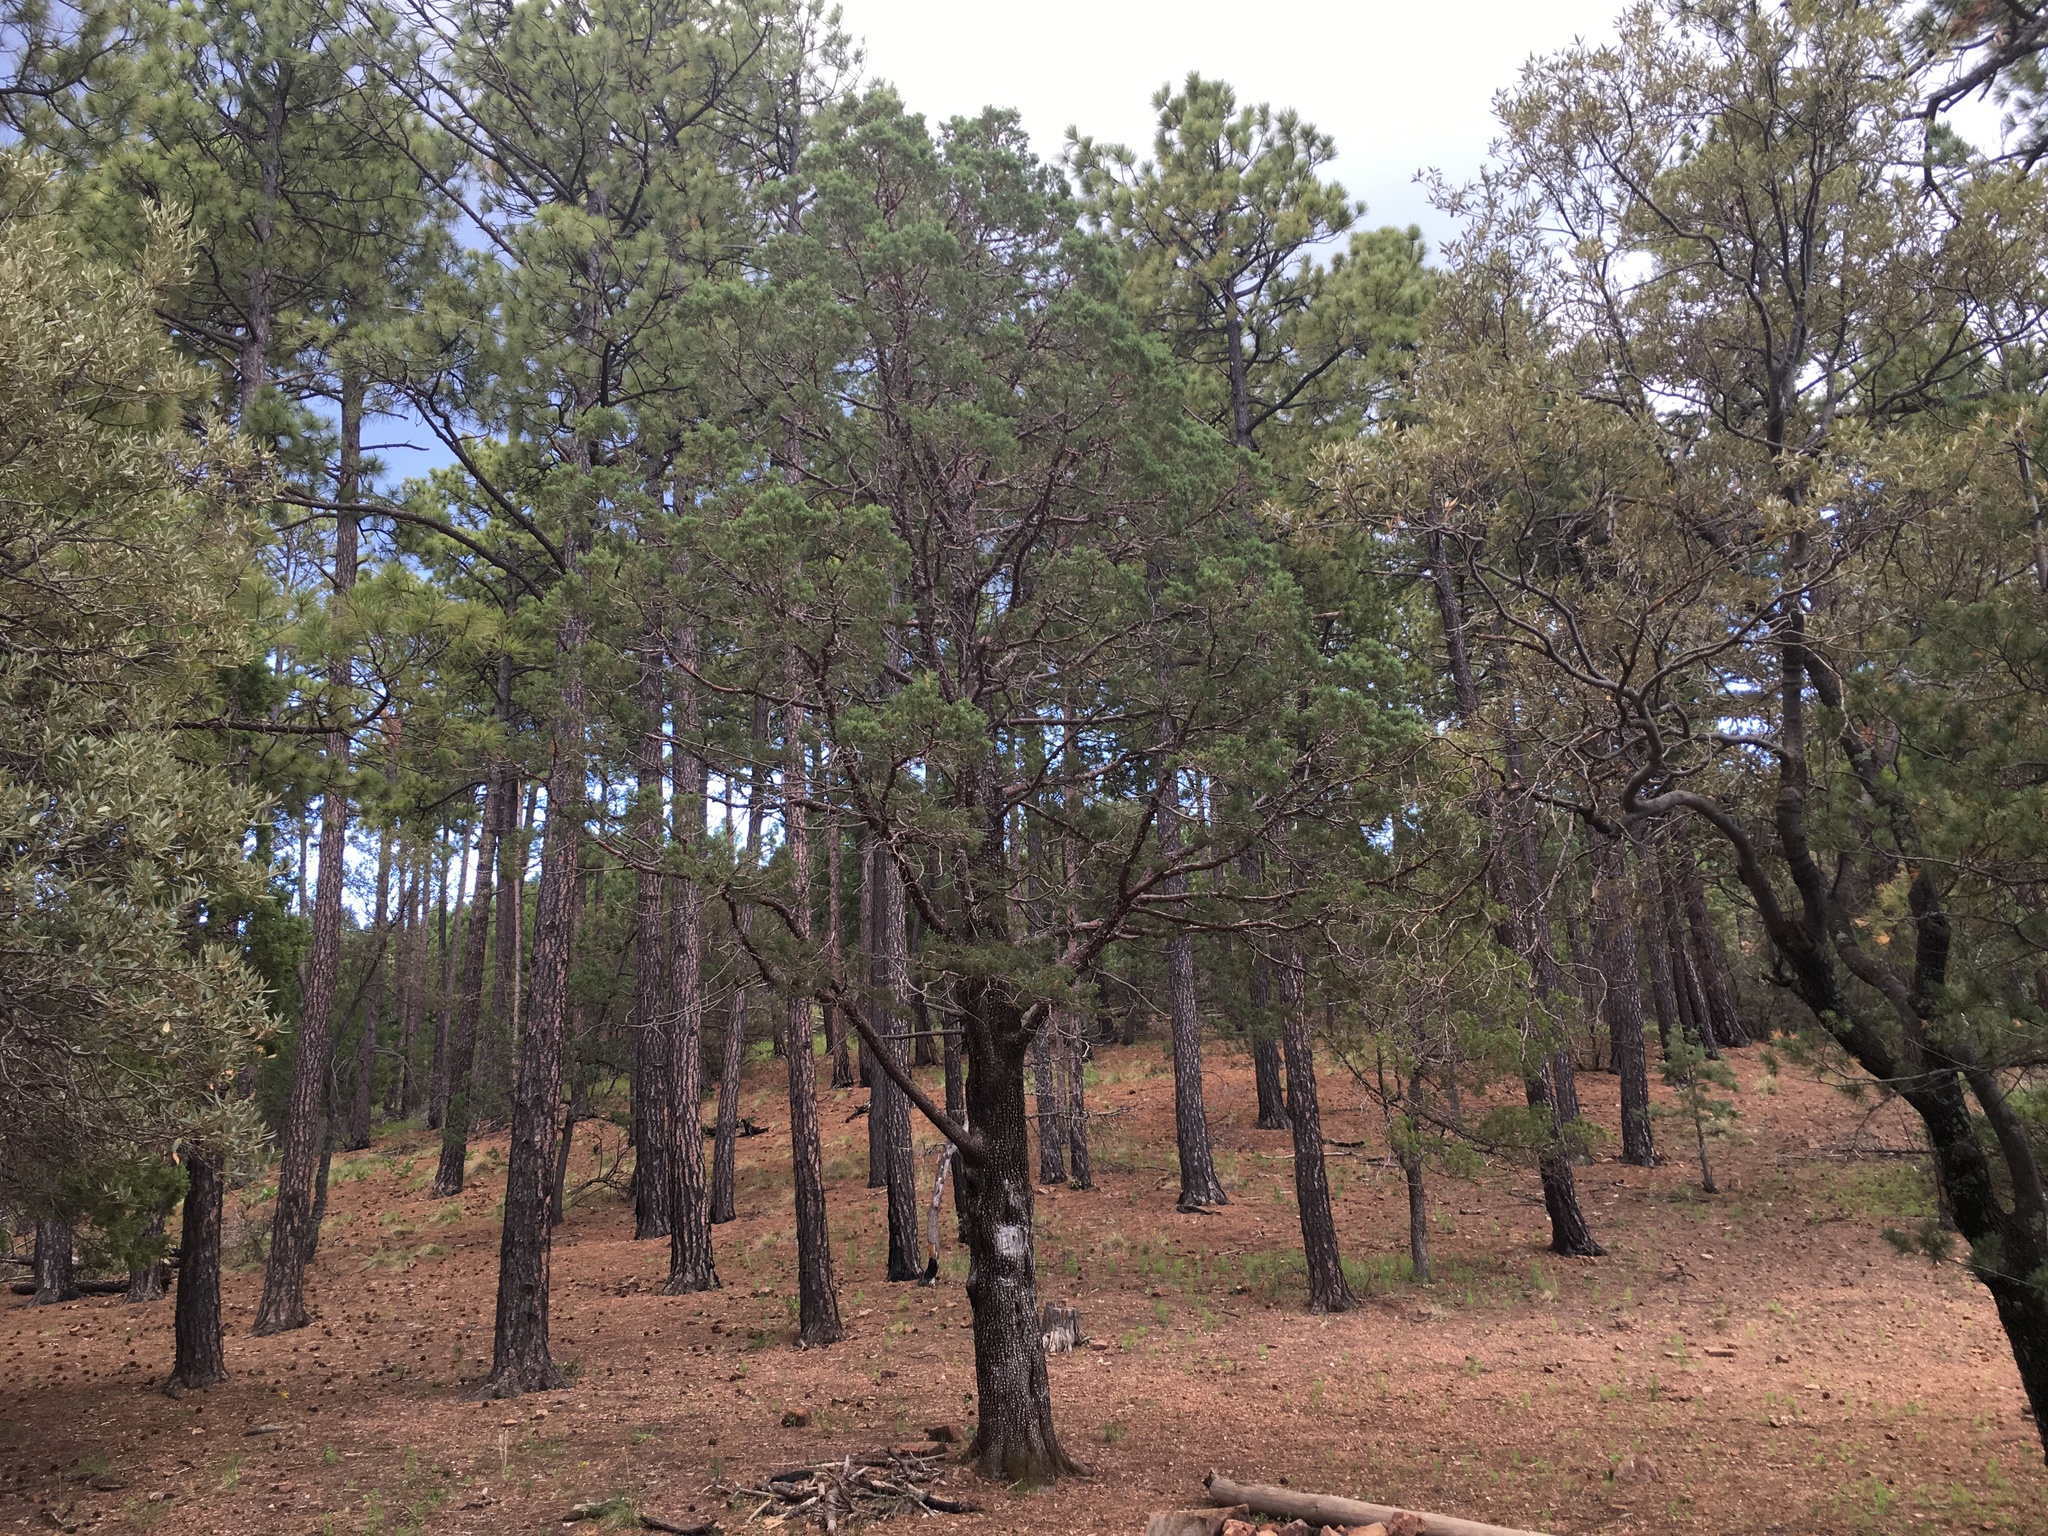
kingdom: Plantae
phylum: Tracheophyta
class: Pinopsida
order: Pinales
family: Cupressaceae
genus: Juniperus
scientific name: Juniperus deppeana
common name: Alligator juniper
